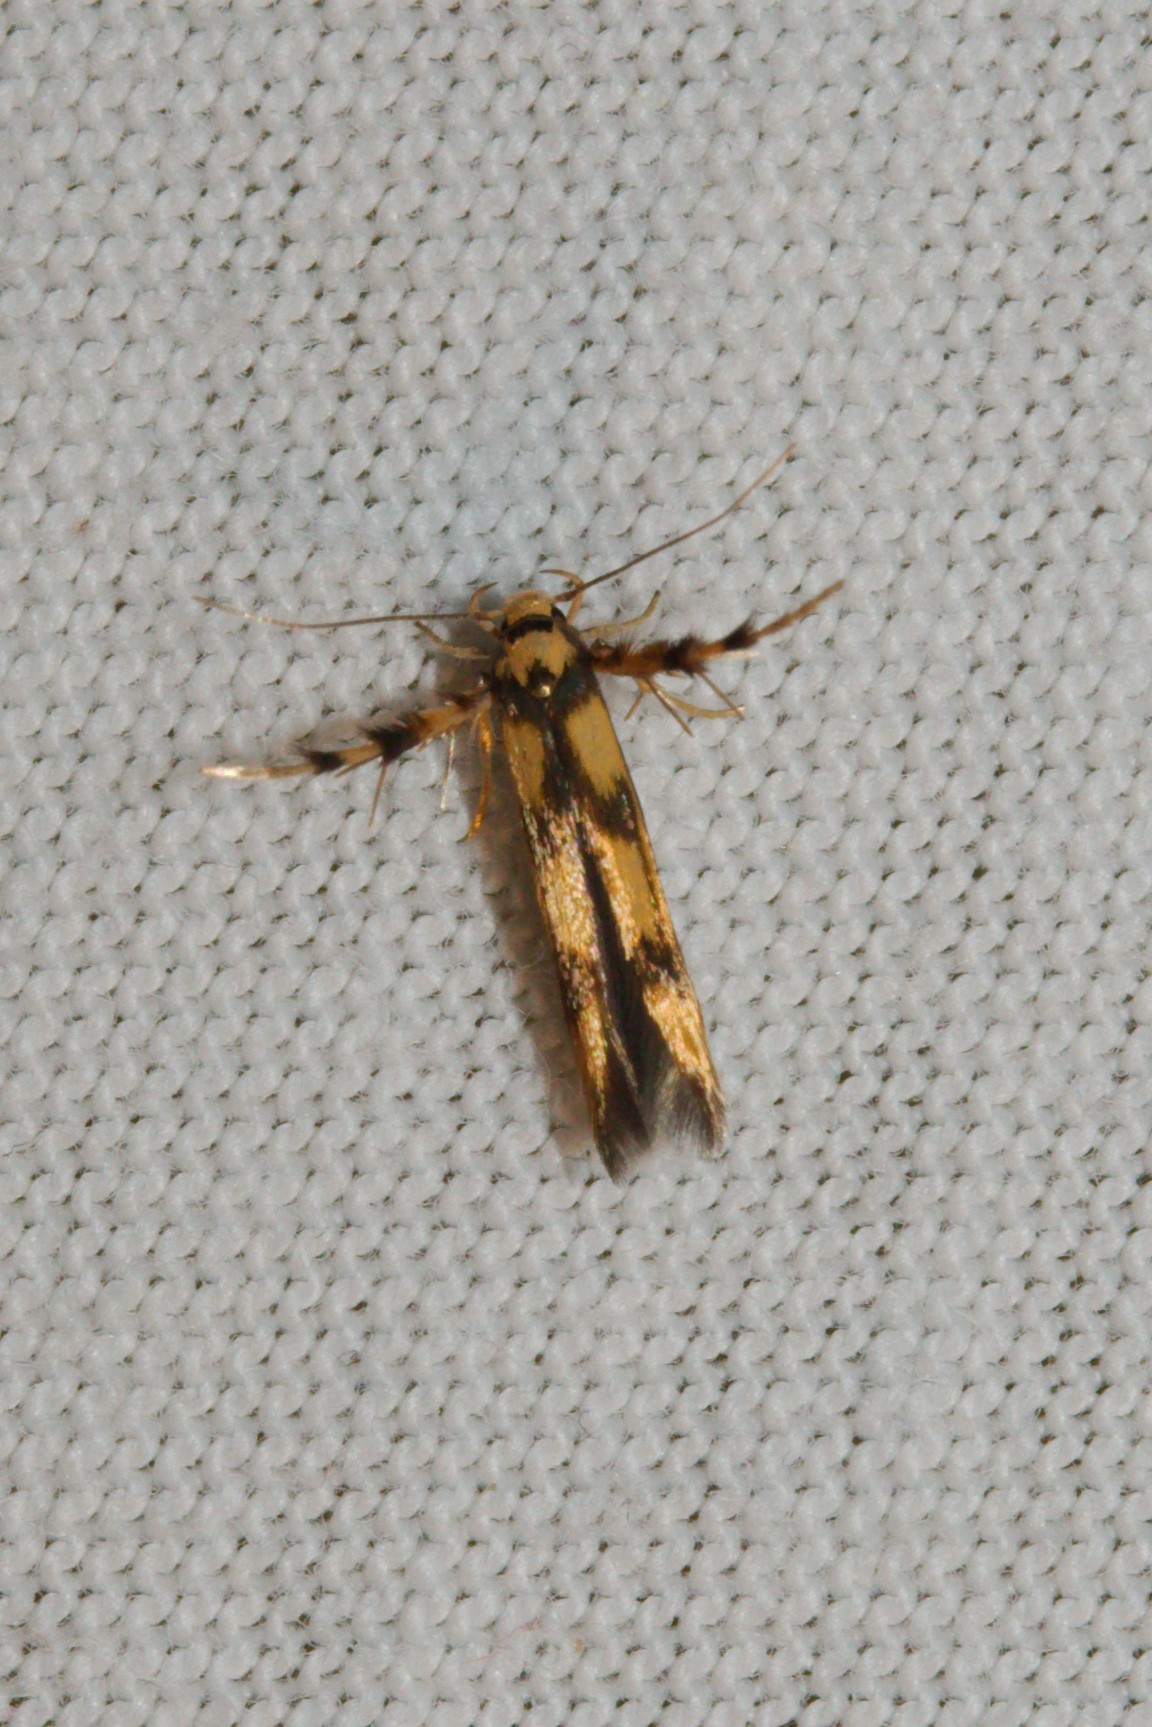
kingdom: Animalia
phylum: Arthropoda
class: Insecta
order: Lepidoptera
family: Stathmopodidae
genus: Stathmopoda
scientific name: Stathmopoda pedella
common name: Alder signal
